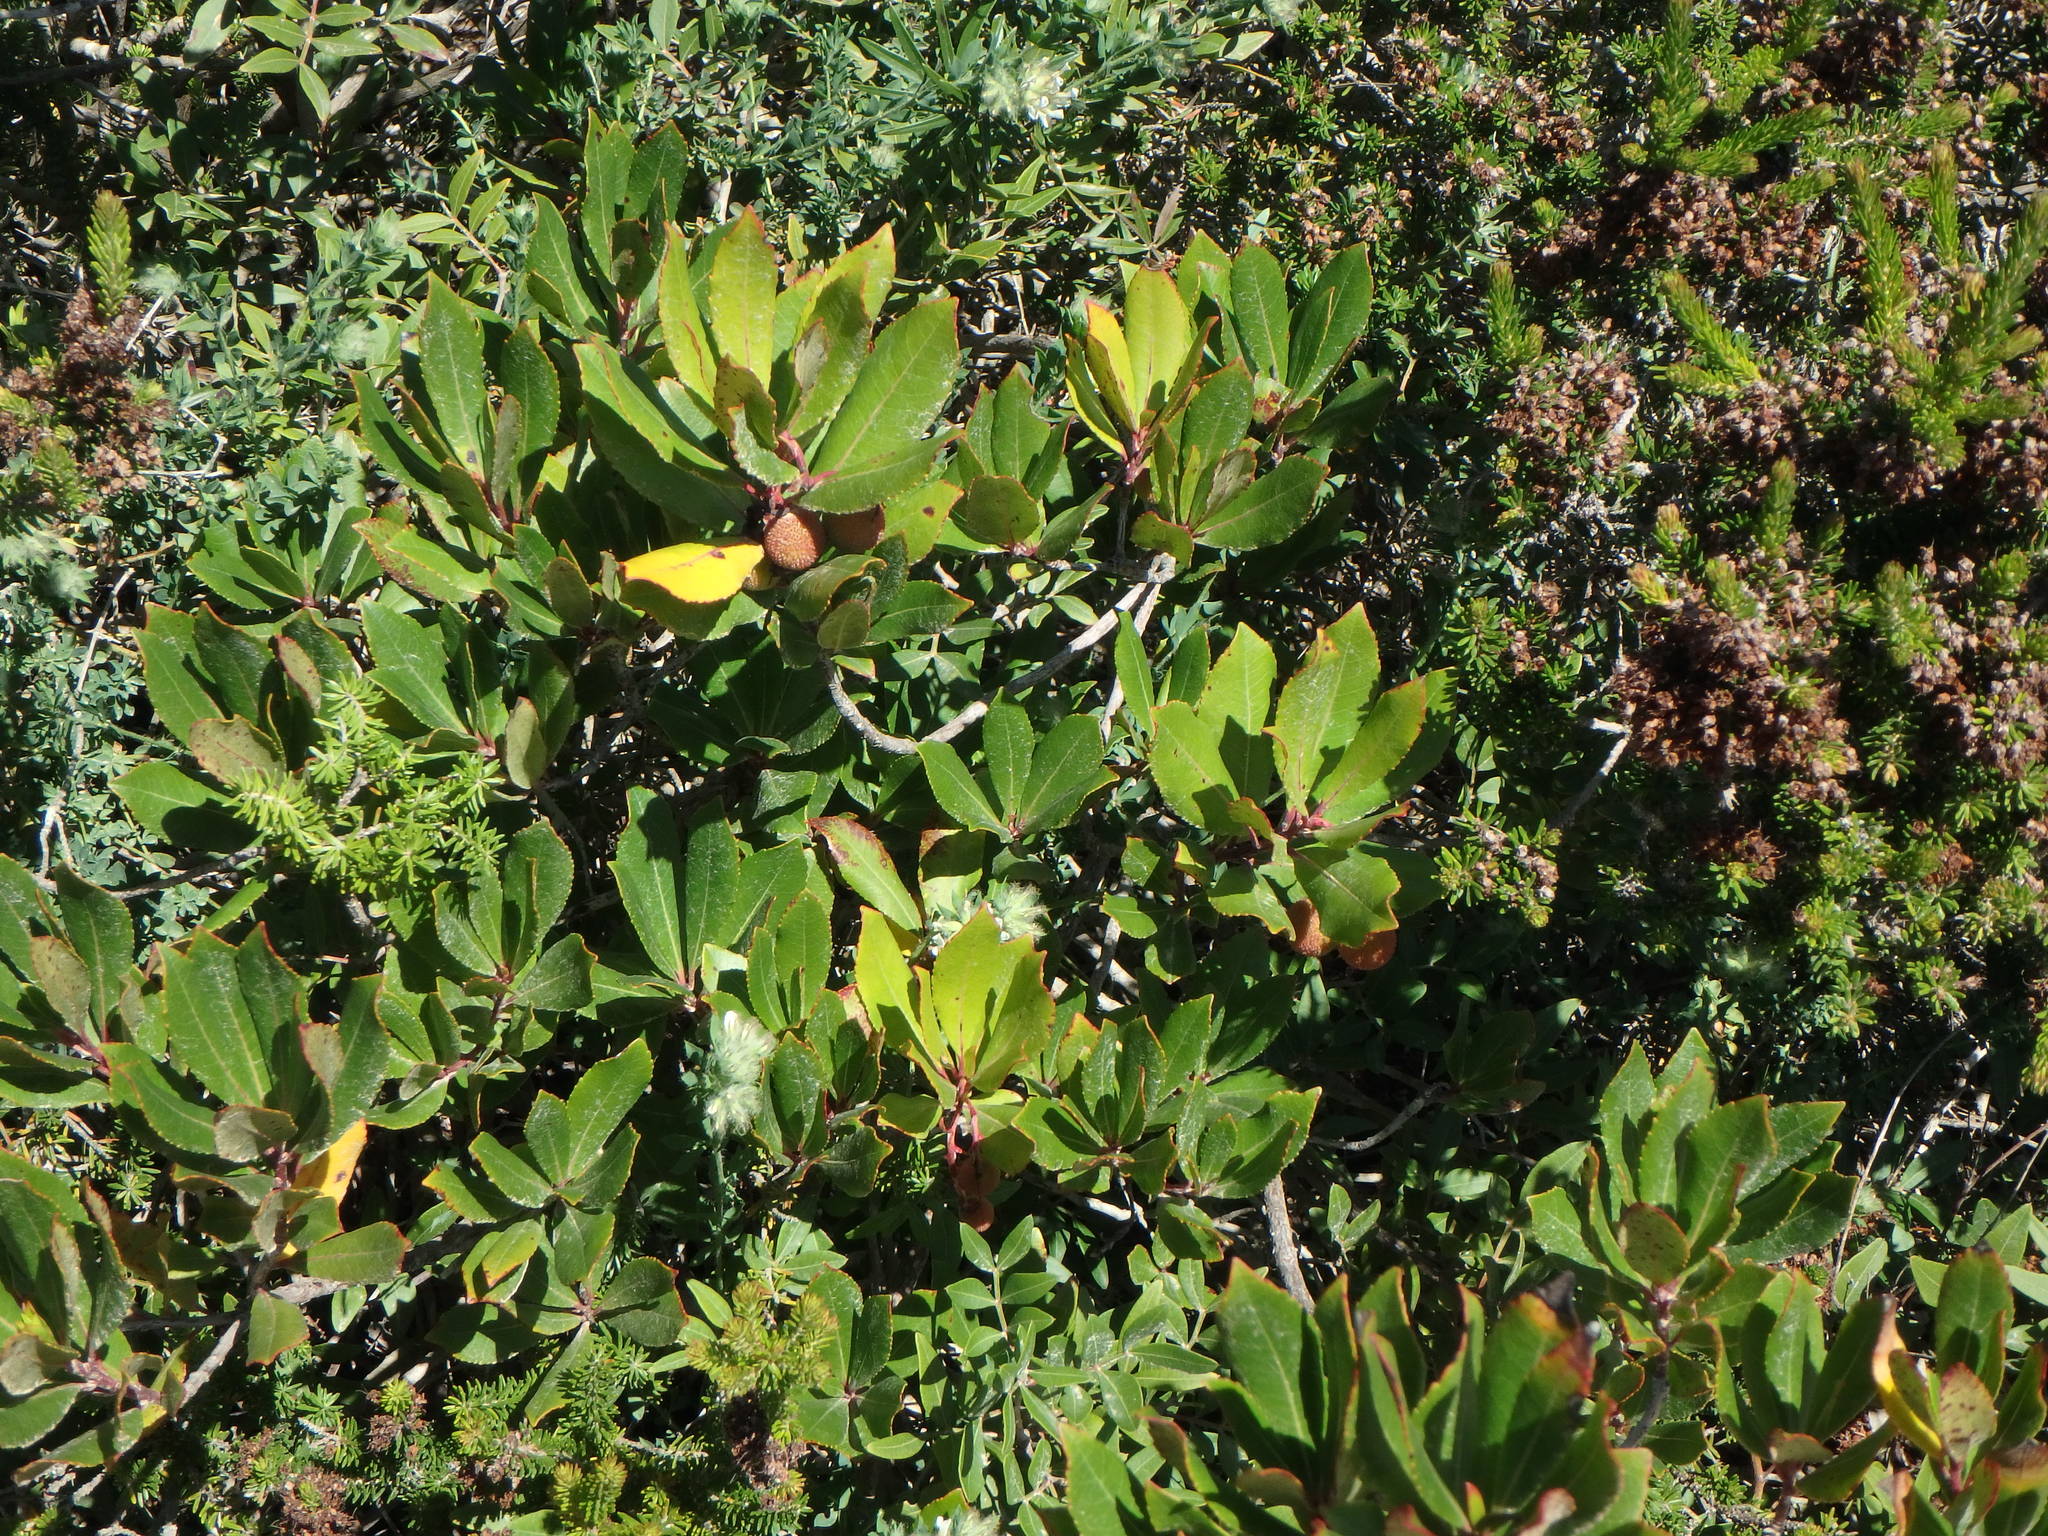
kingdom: Plantae
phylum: Tracheophyta
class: Magnoliopsida
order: Ericales
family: Ericaceae
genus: Arbutus
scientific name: Arbutus unedo
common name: Strawberry-tree
